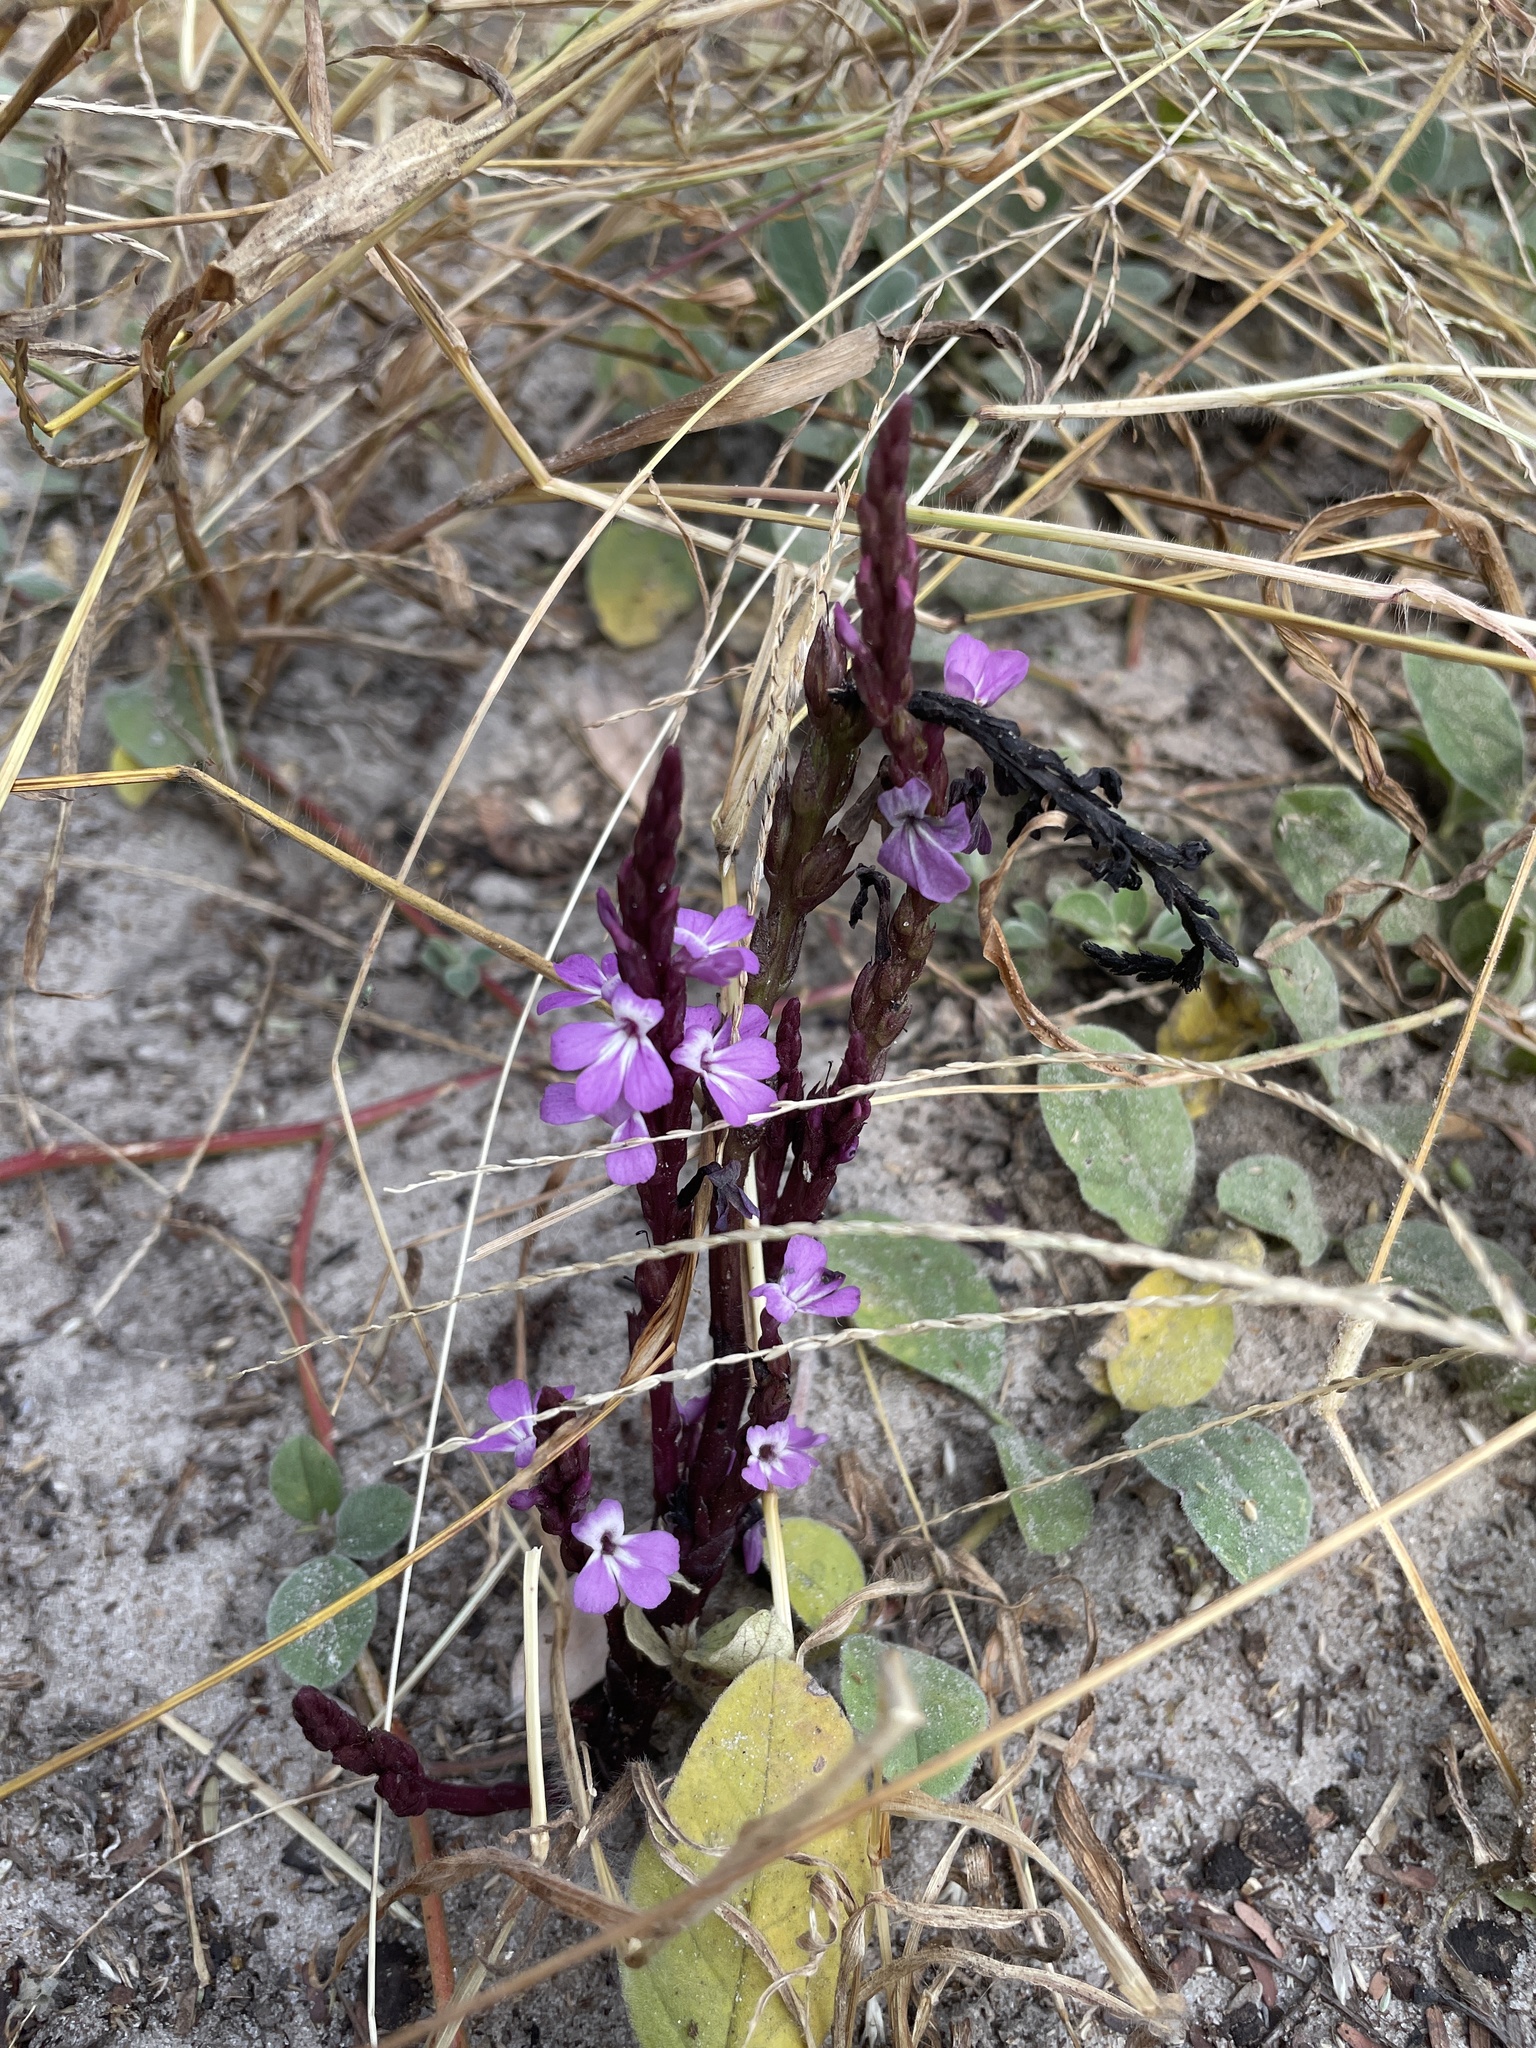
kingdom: Plantae
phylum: Tracheophyta
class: Magnoliopsida
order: Lamiales
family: Orobanchaceae
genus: Striga
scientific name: Striga gesnerioides
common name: Cowpea witchweed
